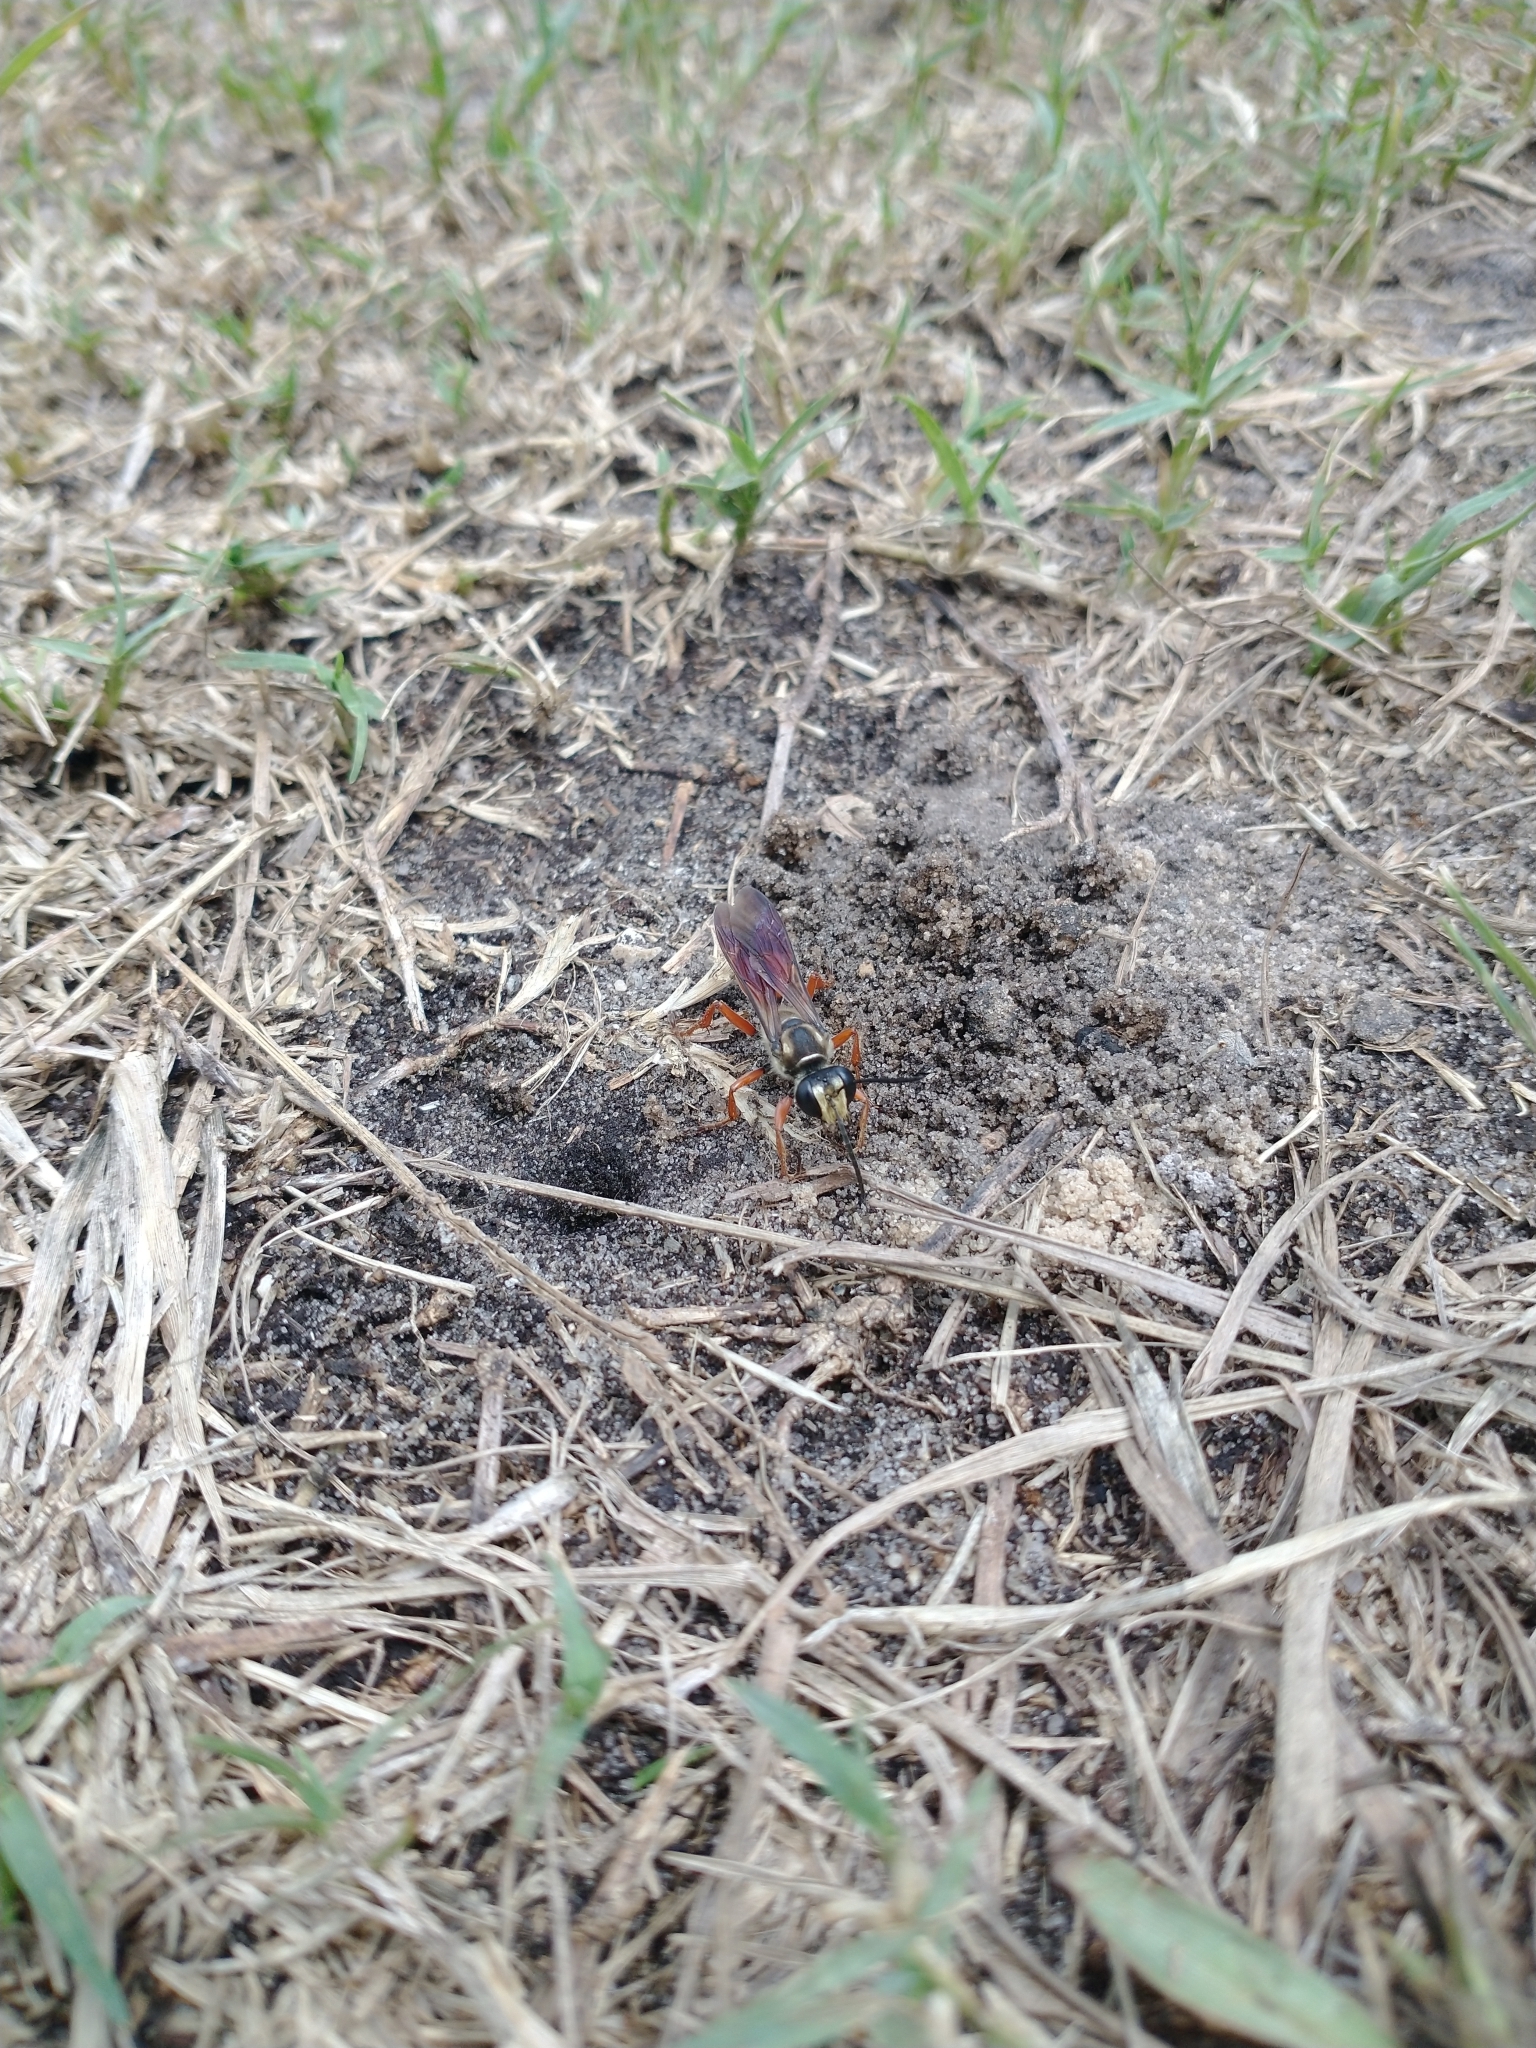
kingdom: Animalia
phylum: Arthropoda
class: Insecta
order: Hymenoptera
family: Sphecidae
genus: Sphex
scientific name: Sphex dorsalis
